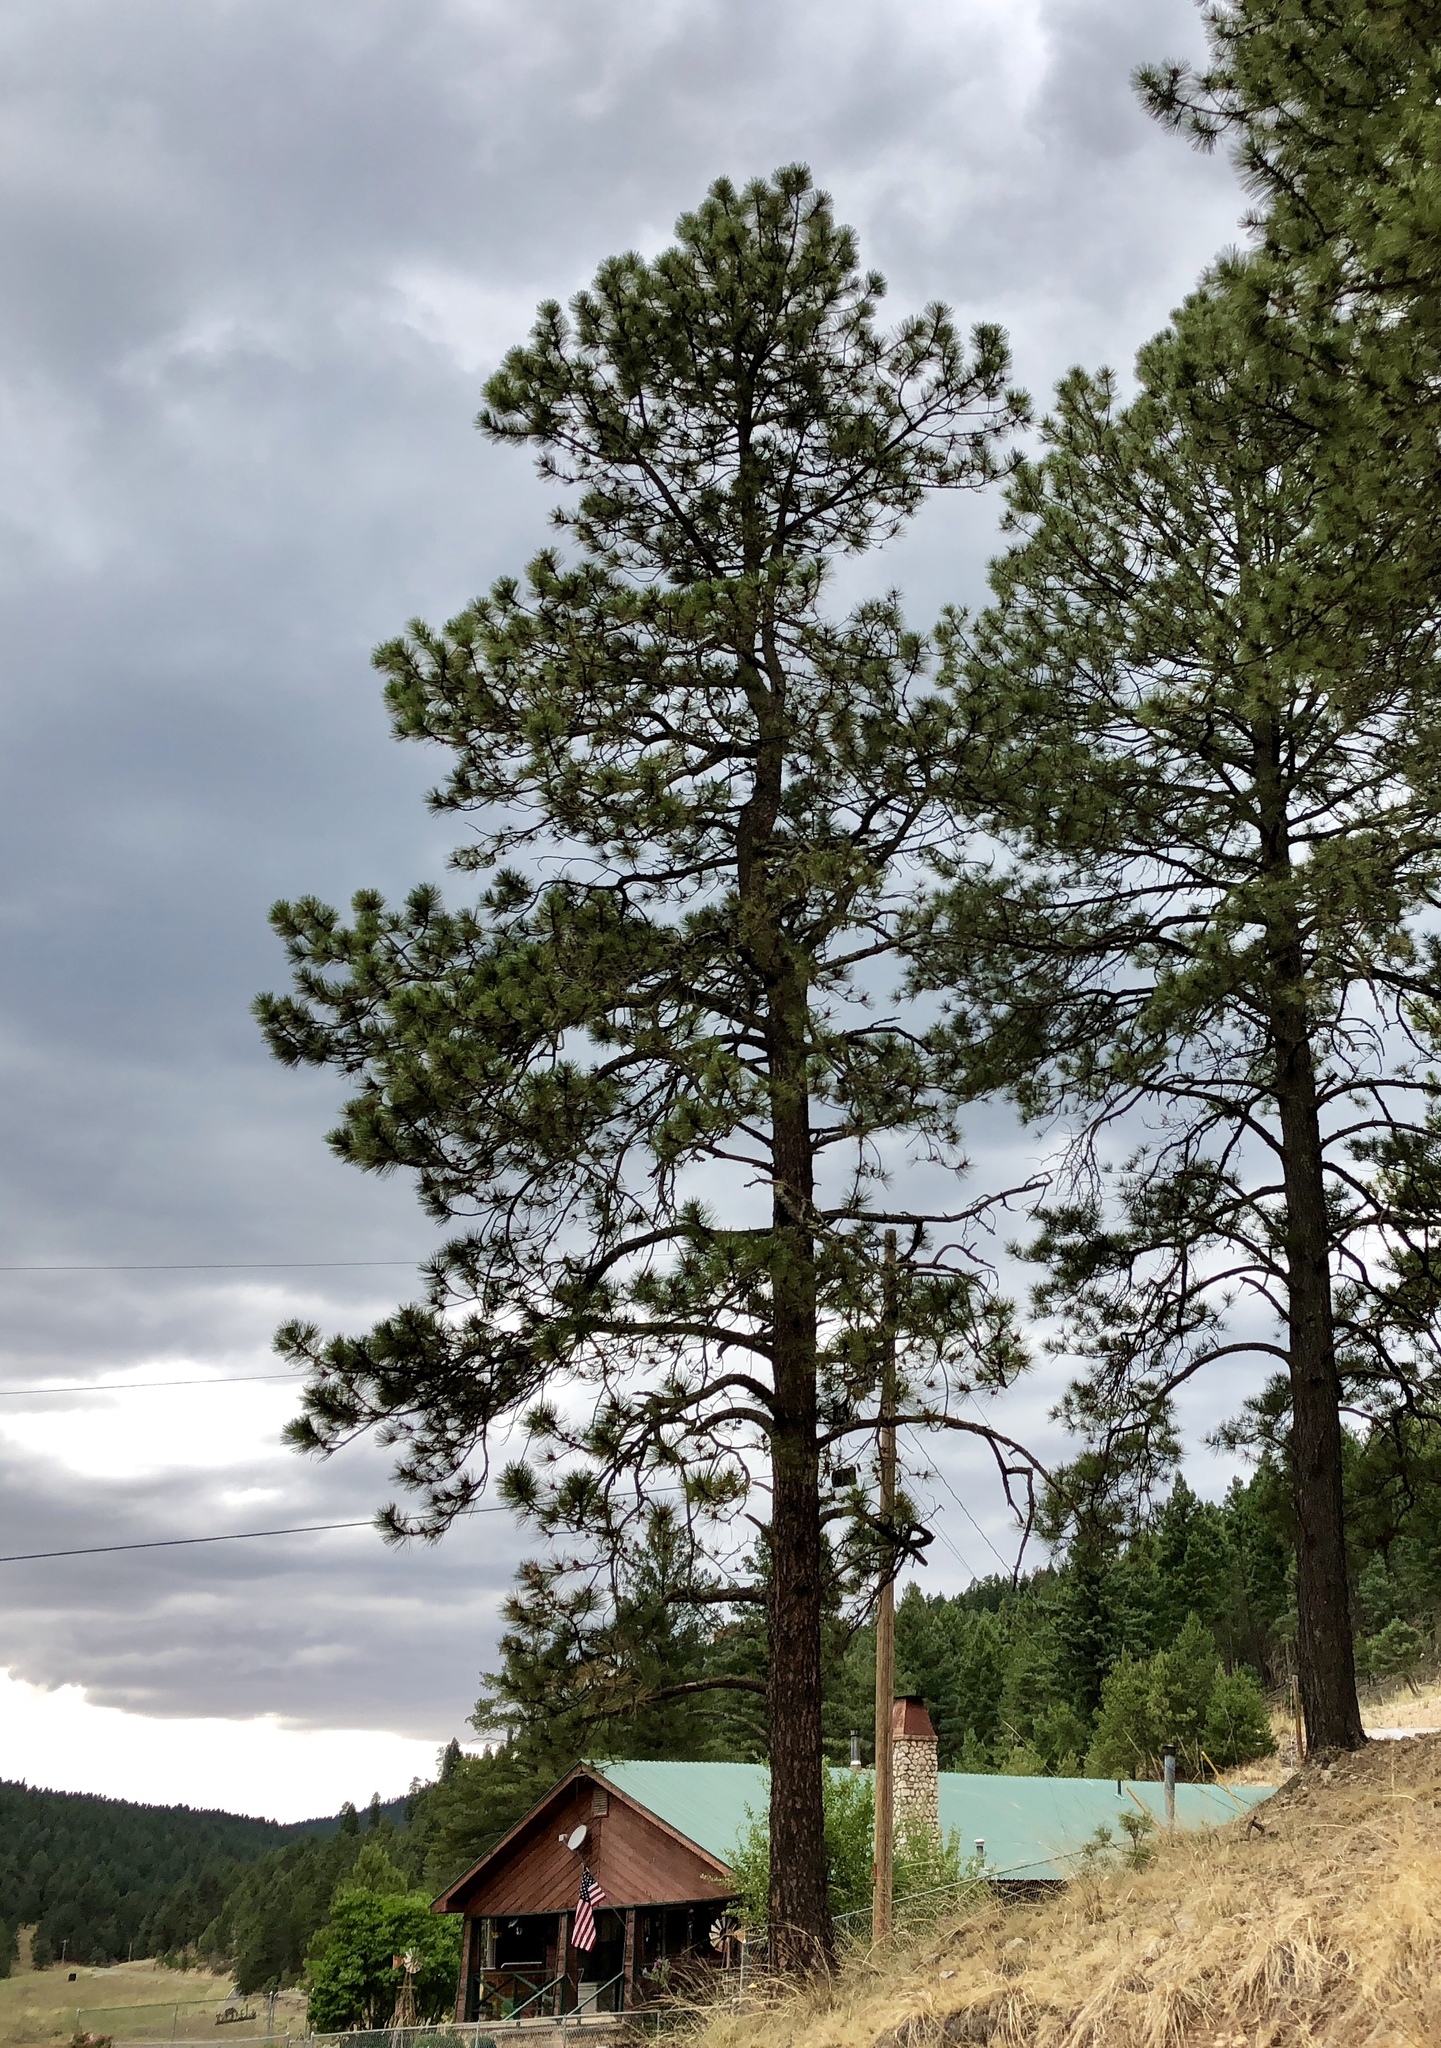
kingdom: Plantae
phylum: Tracheophyta
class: Pinopsida
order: Pinales
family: Pinaceae
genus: Pinus
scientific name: Pinus ponderosa
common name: Western yellow-pine
